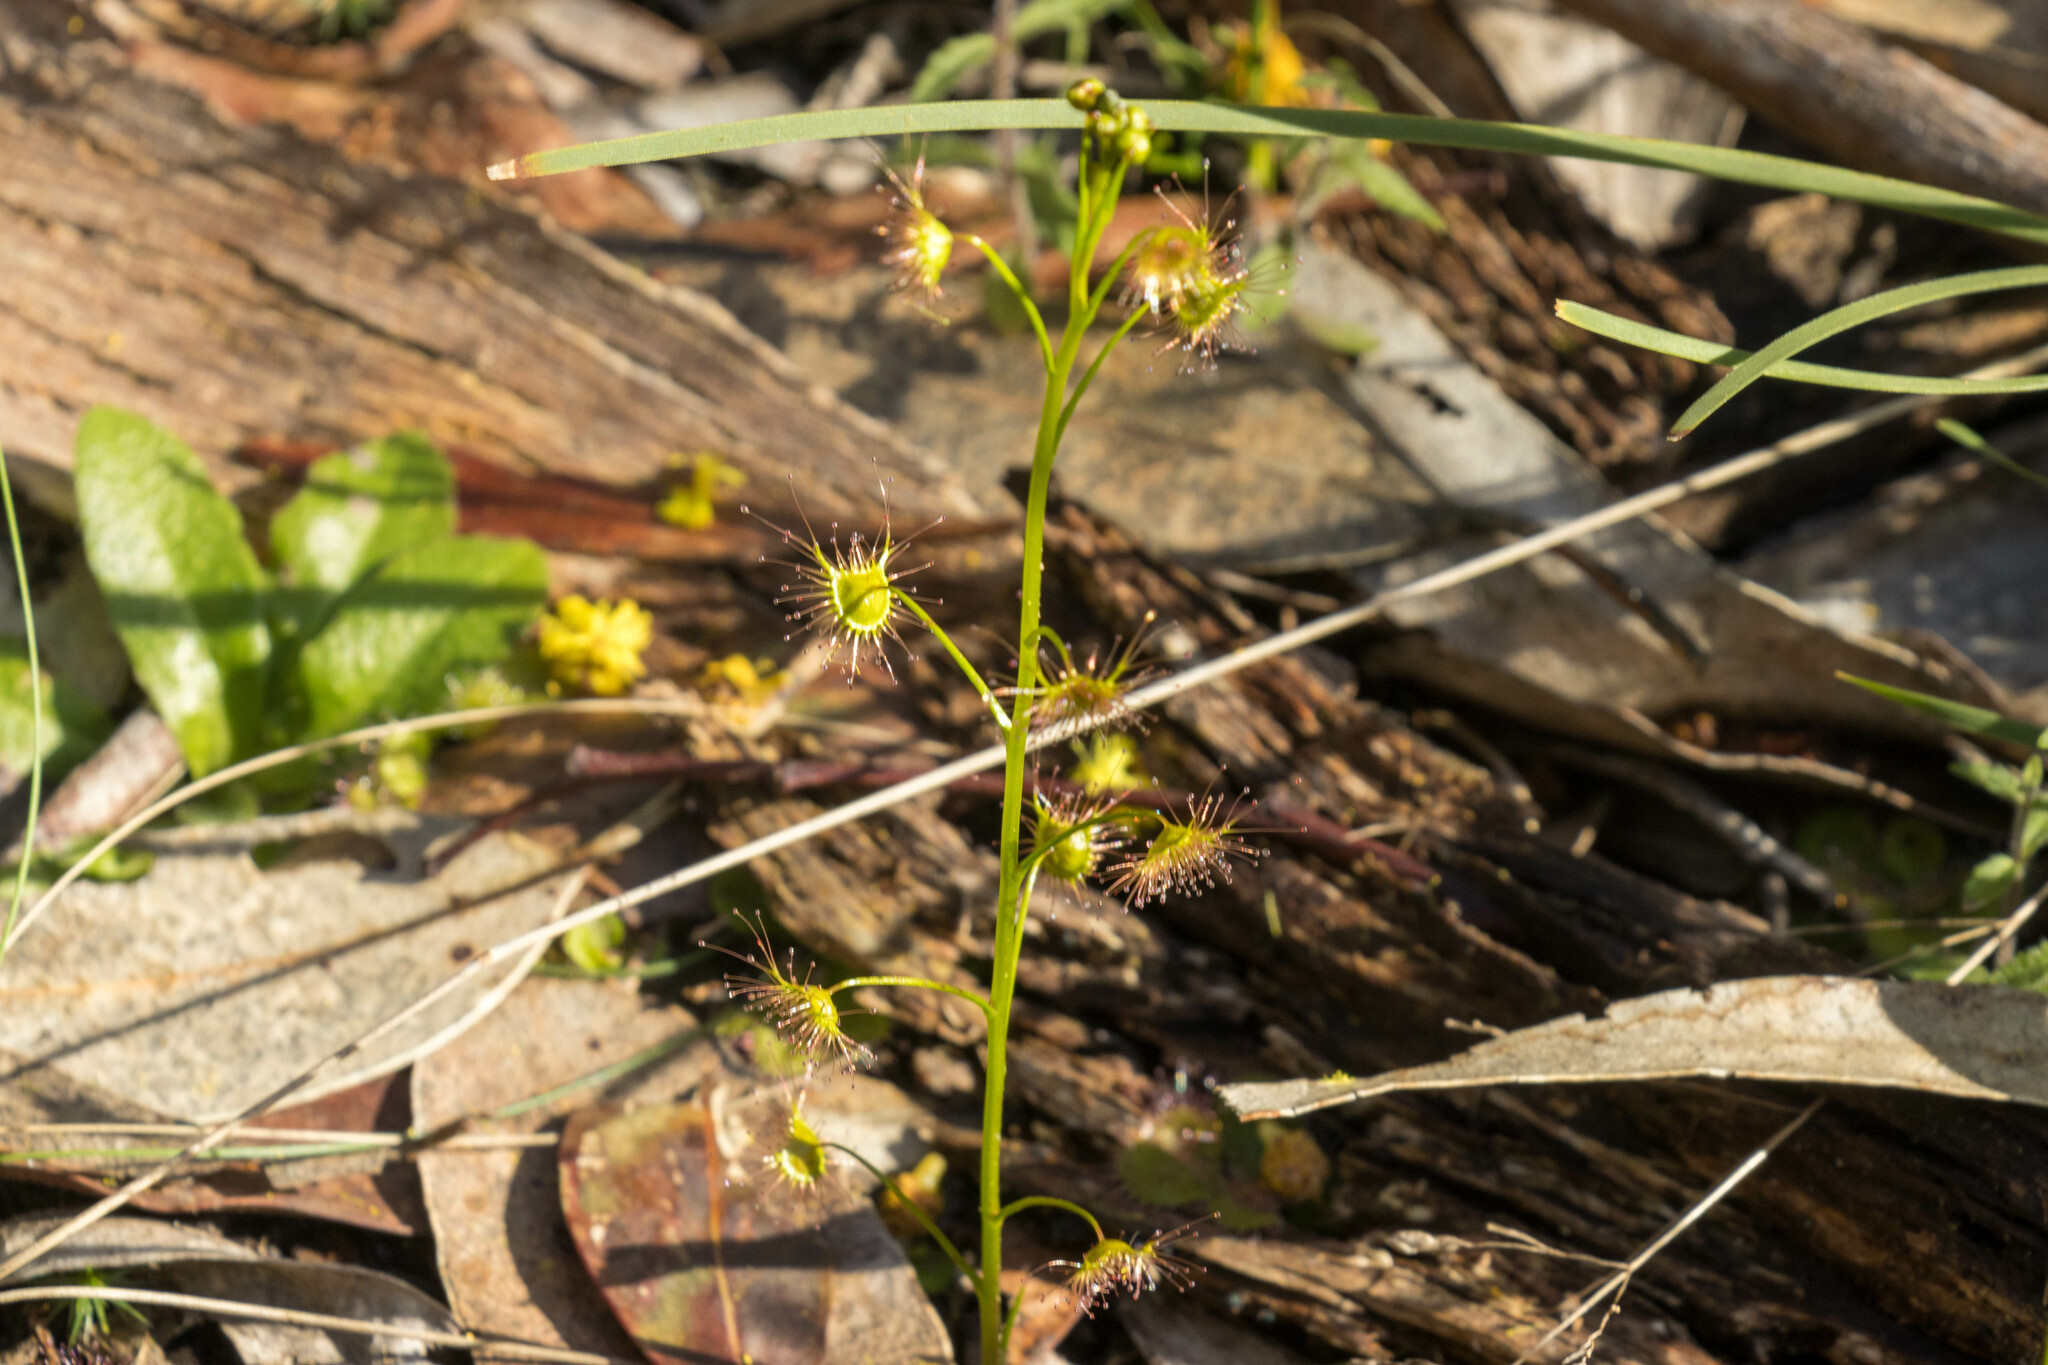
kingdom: Plantae
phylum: Tracheophyta
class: Magnoliopsida
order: Caryophyllales
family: Droseraceae
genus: Drosera
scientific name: Drosera peltata
